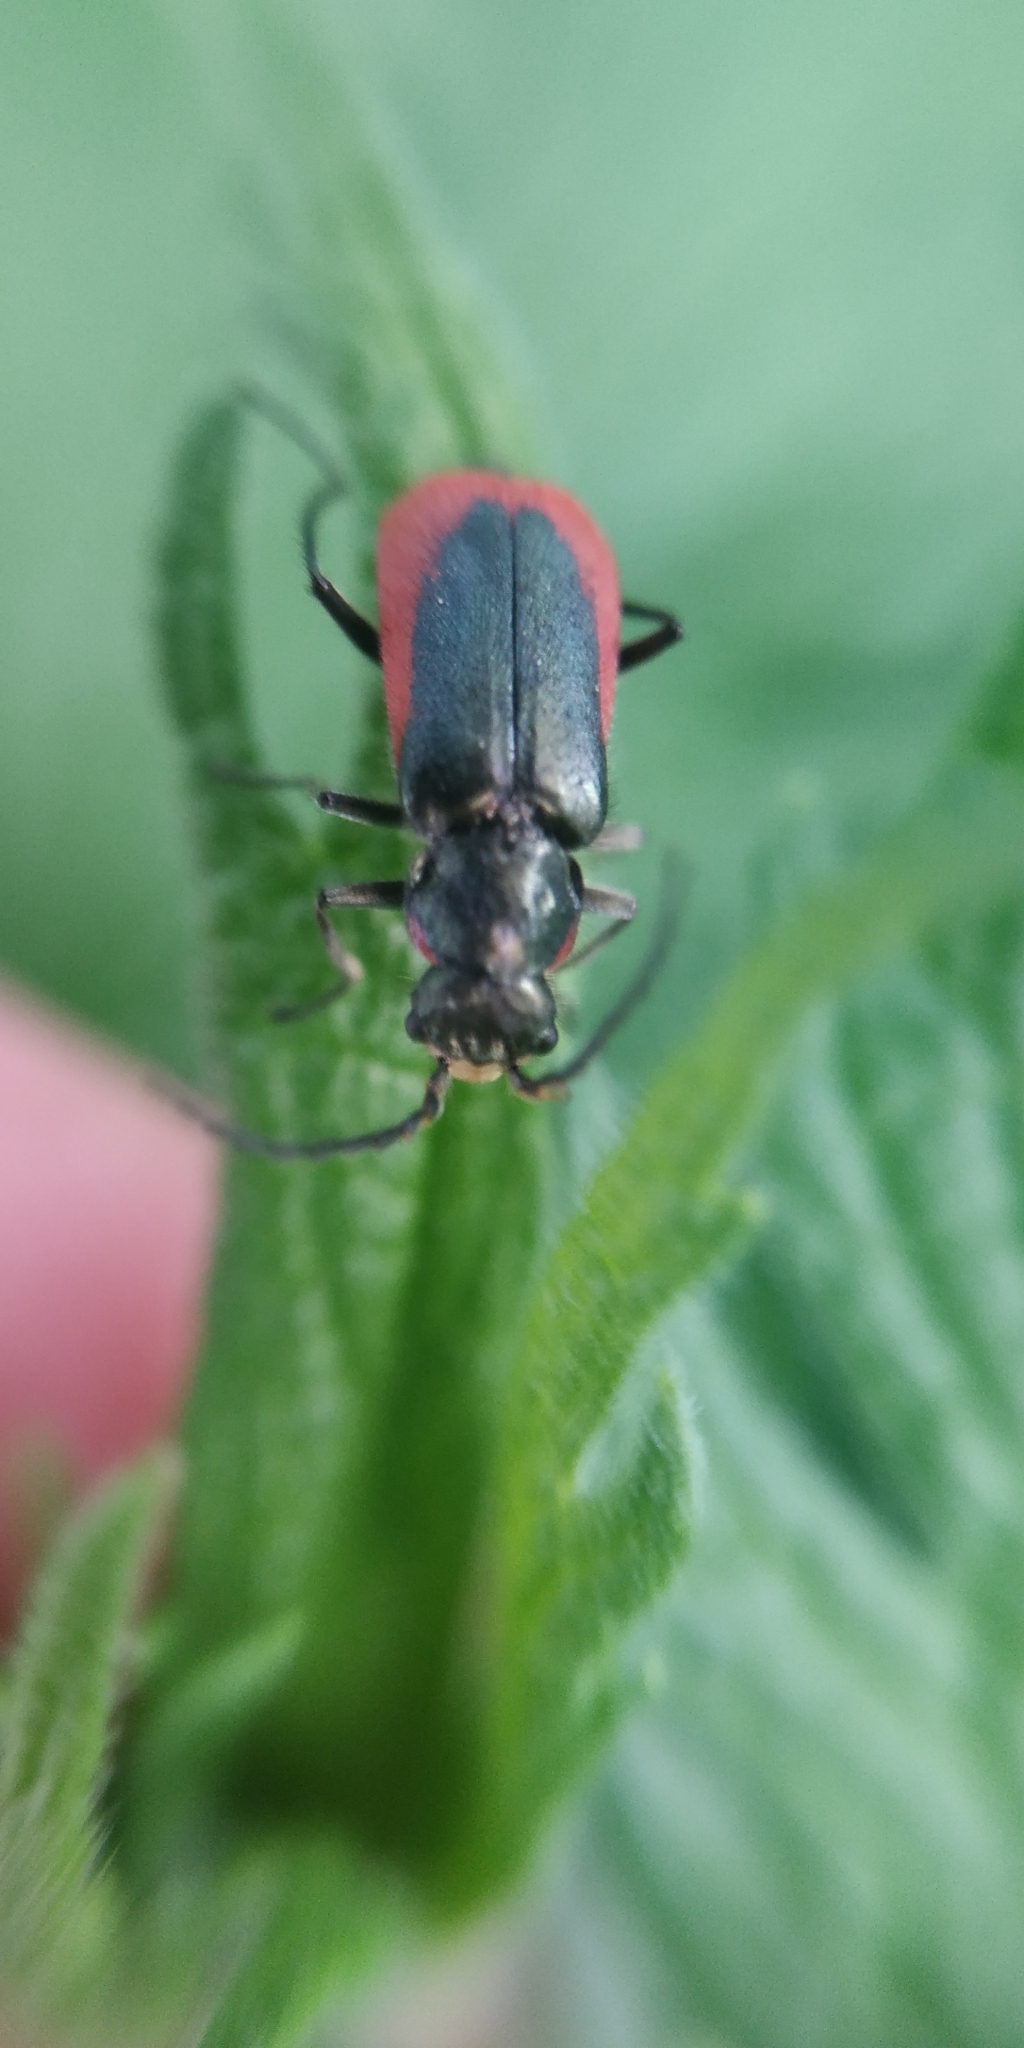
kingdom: Animalia
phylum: Arthropoda
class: Insecta
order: Coleoptera
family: Melyridae
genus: Malachius
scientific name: Malachius aeneus
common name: Scarlet malachite beetle
